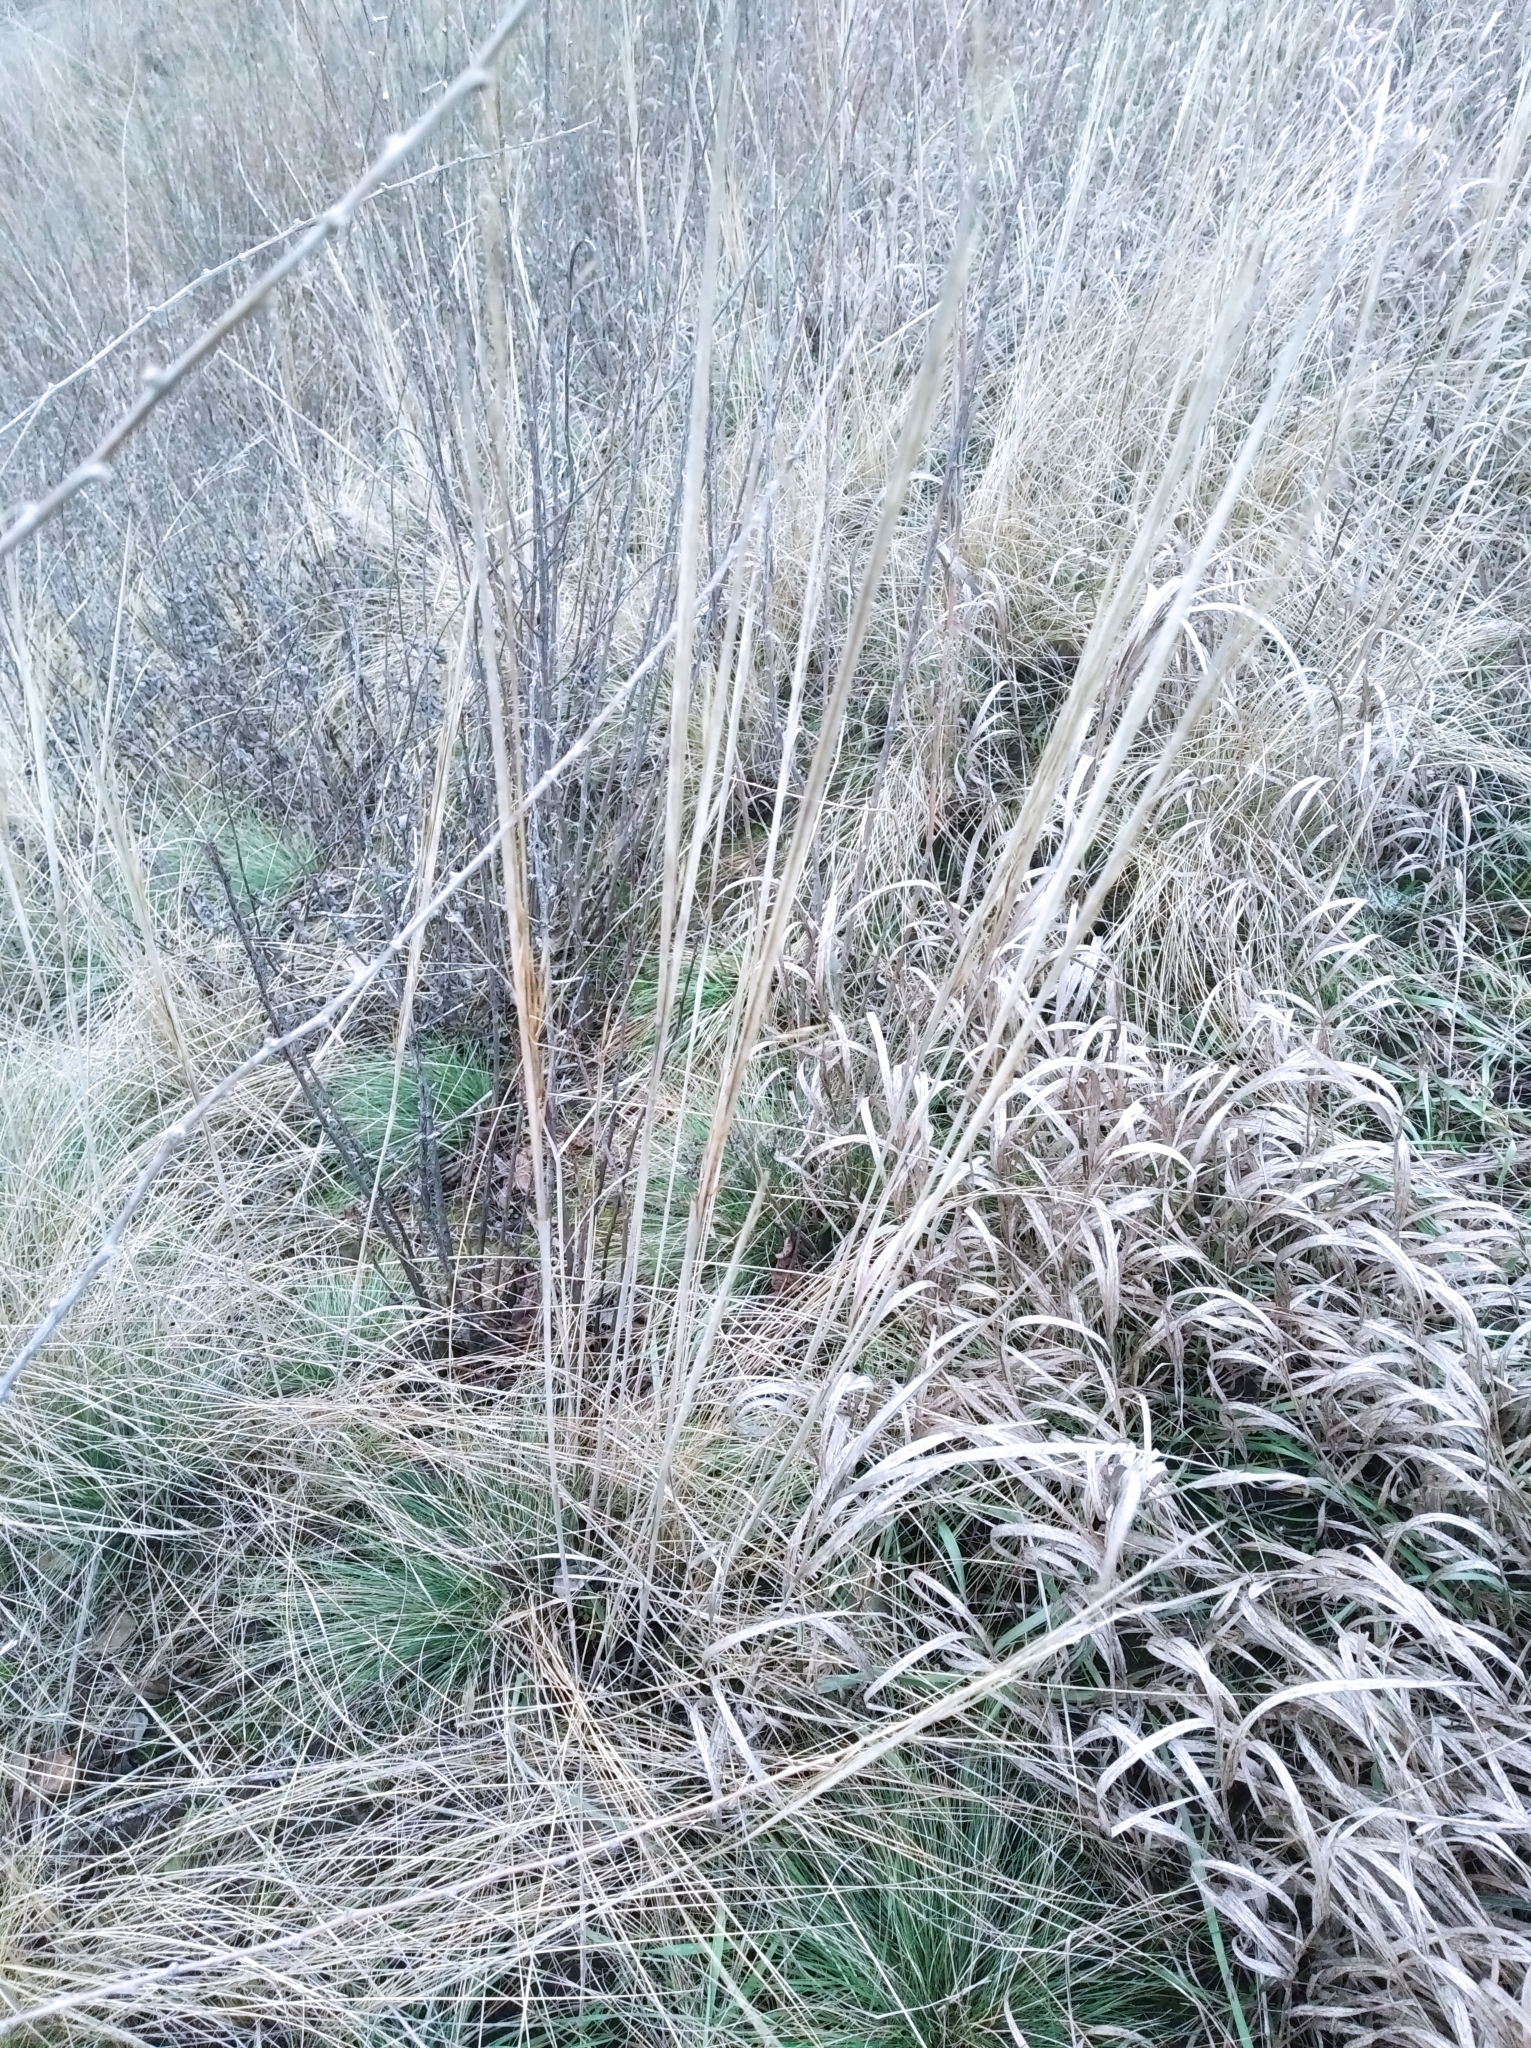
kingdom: Plantae
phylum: Tracheophyta
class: Liliopsida
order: Poales
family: Poaceae
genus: Stipa
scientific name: Stipa capillata
